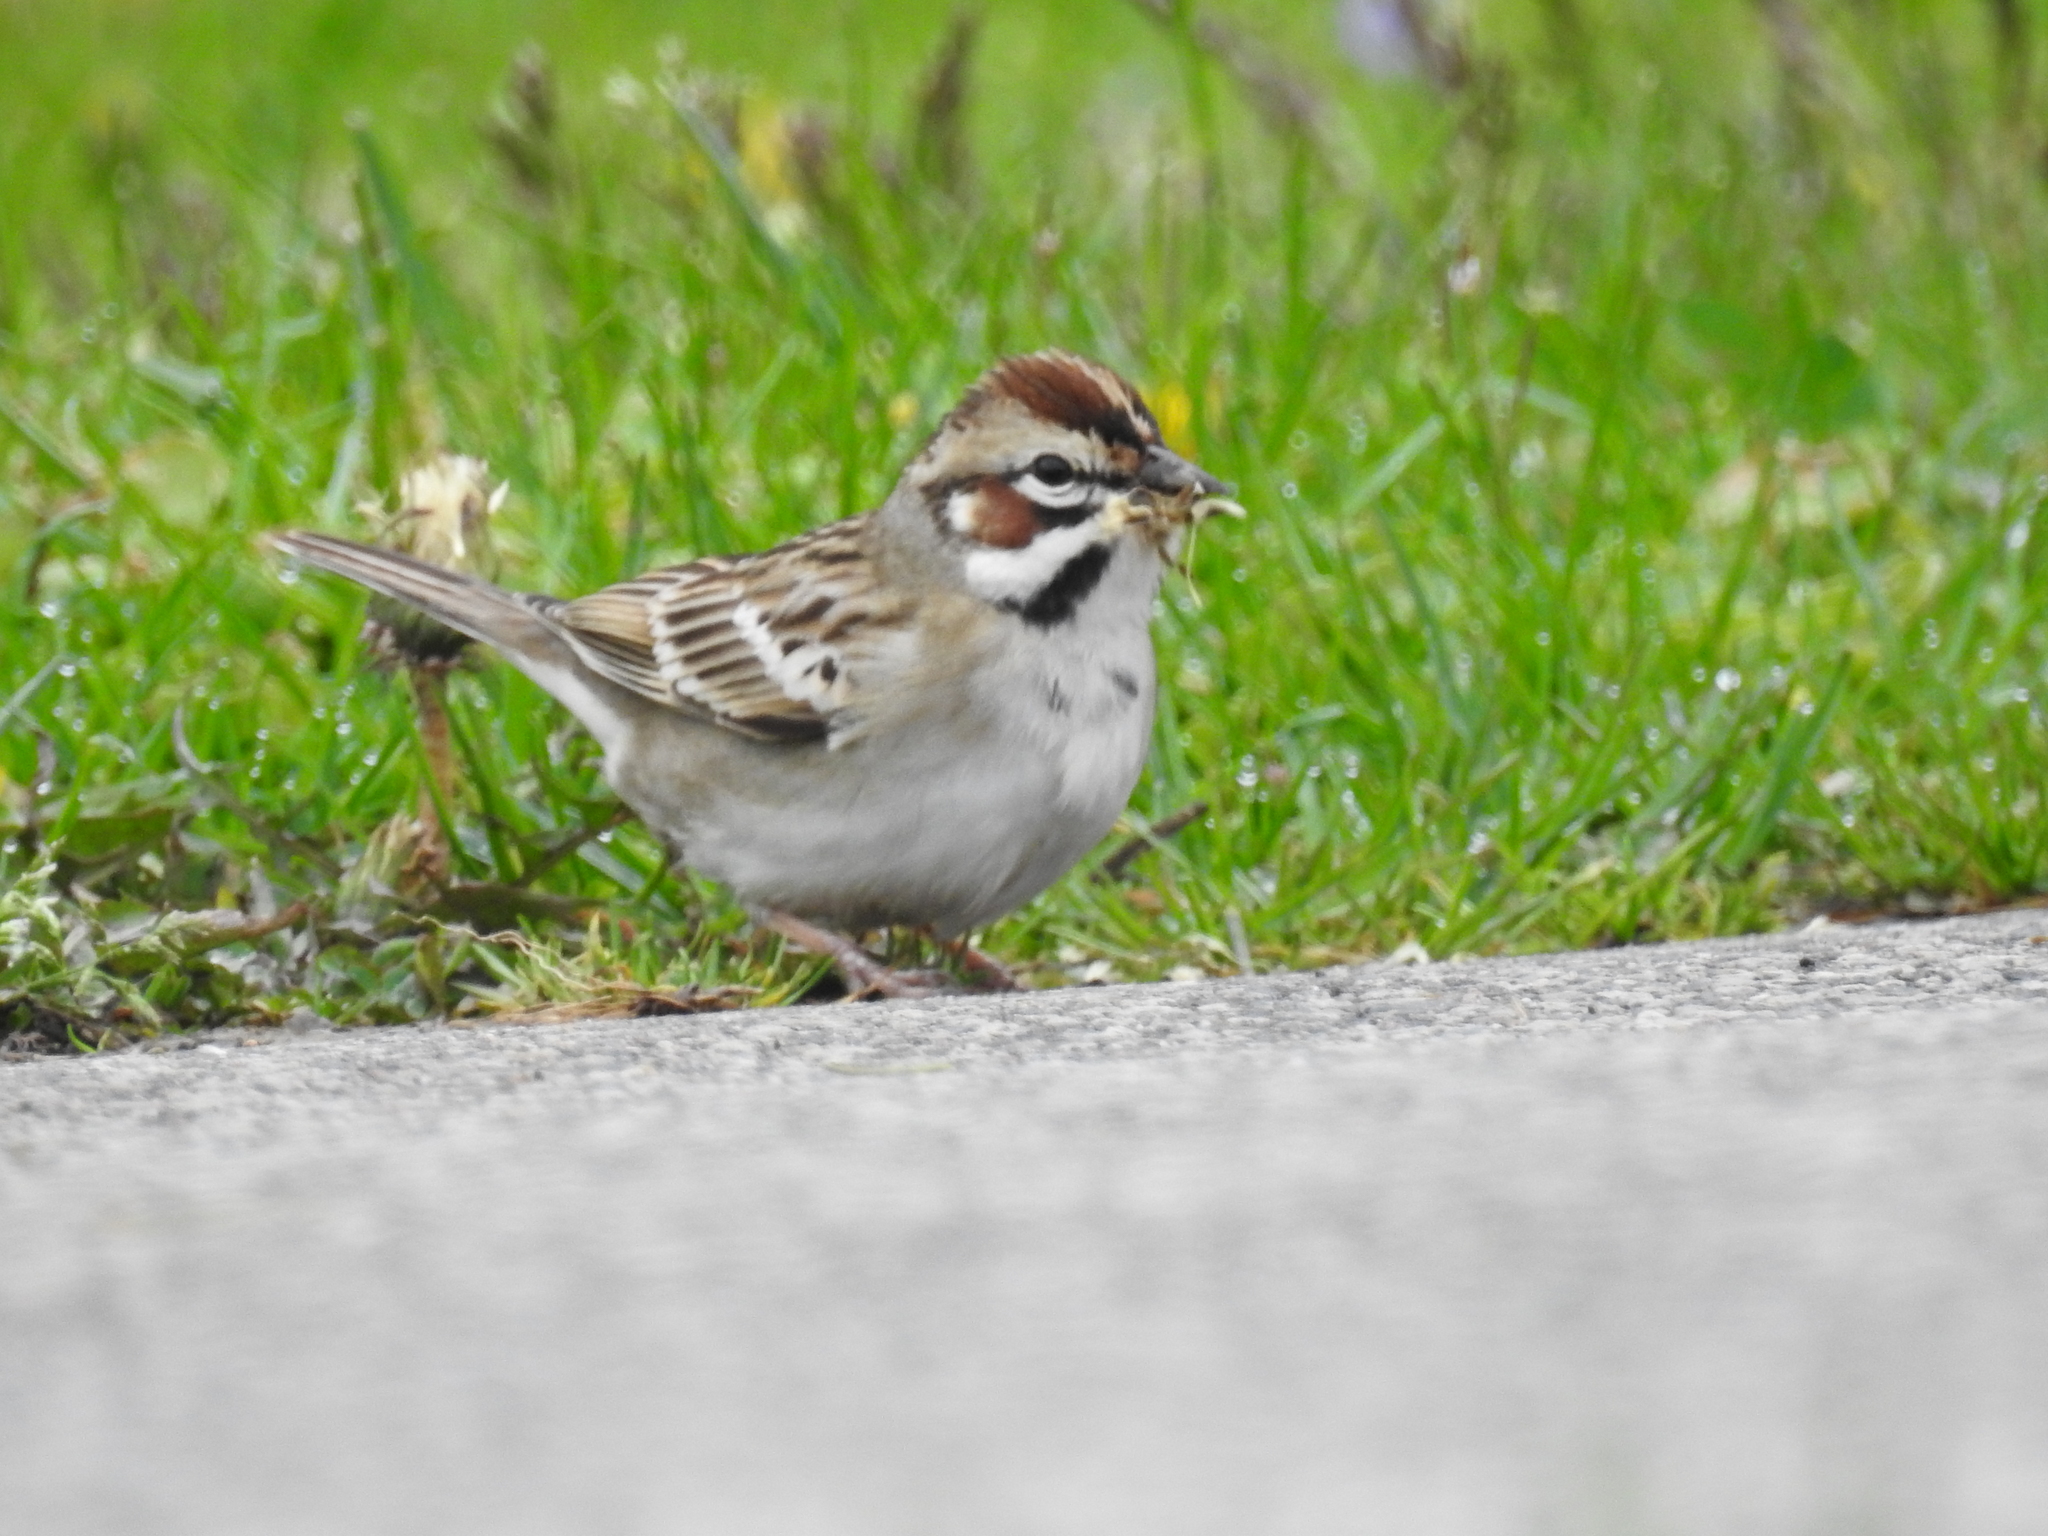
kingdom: Animalia
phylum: Chordata
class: Aves
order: Passeriformes
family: Passerellidae
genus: Chondestes
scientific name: Chondestes grammacus
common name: Lark sparrow
